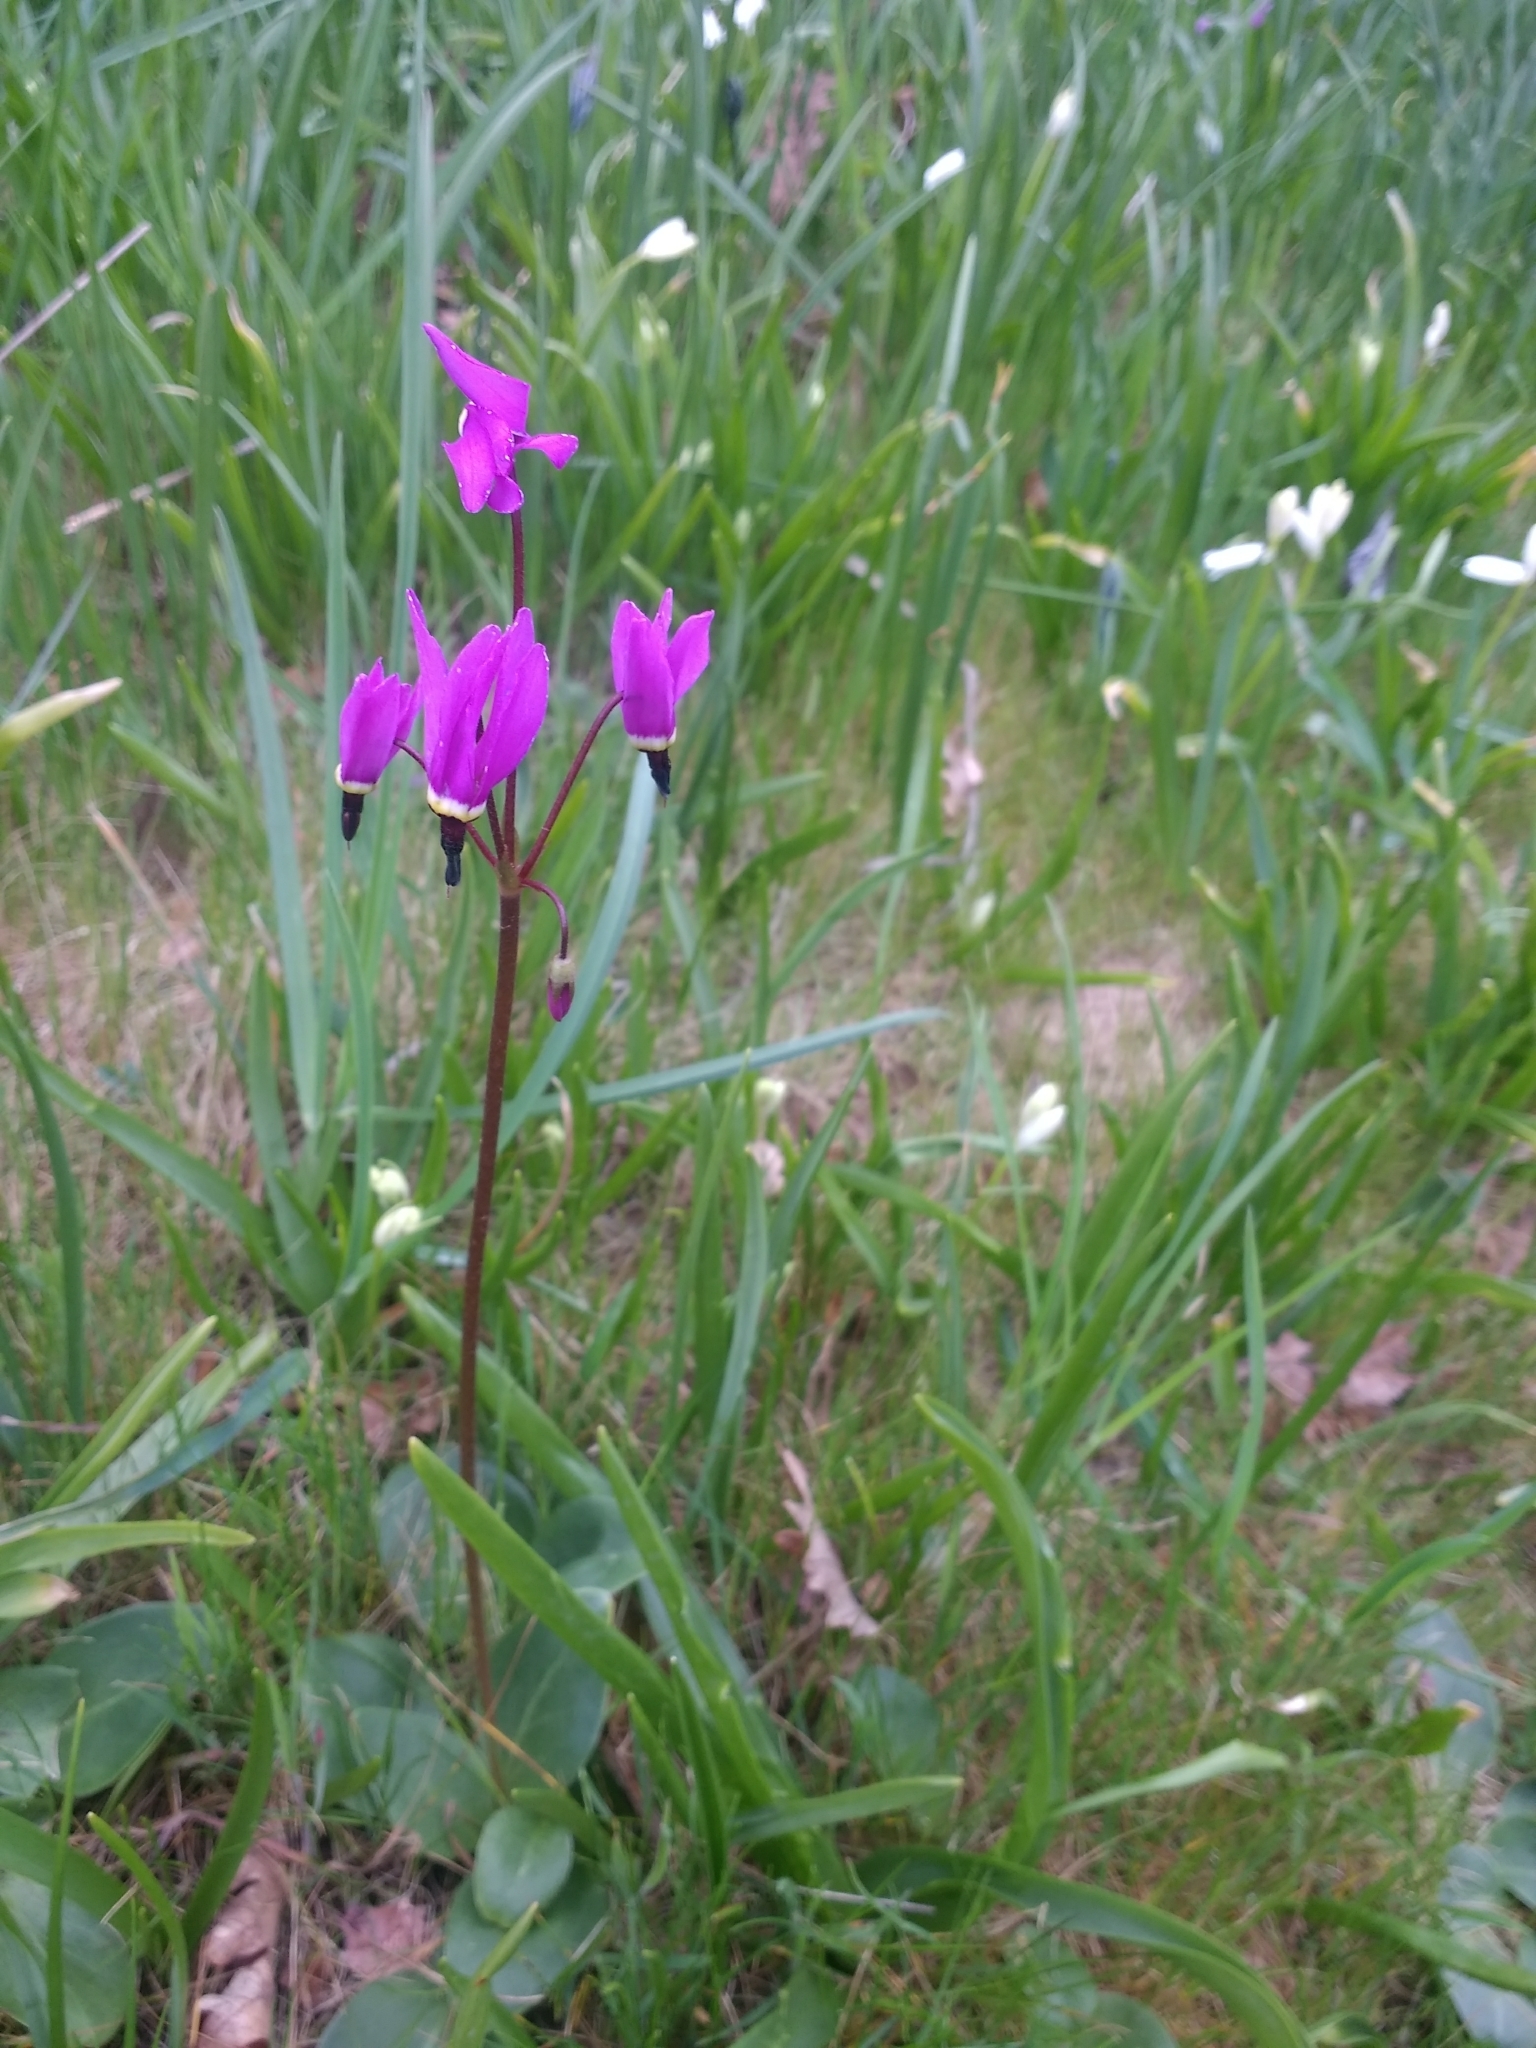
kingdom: Plantae
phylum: Tracheophyta
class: Magnoliopsida
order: Ericales
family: Primulaceae
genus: Dodecatheon
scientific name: Dodecatheon hendersonii
